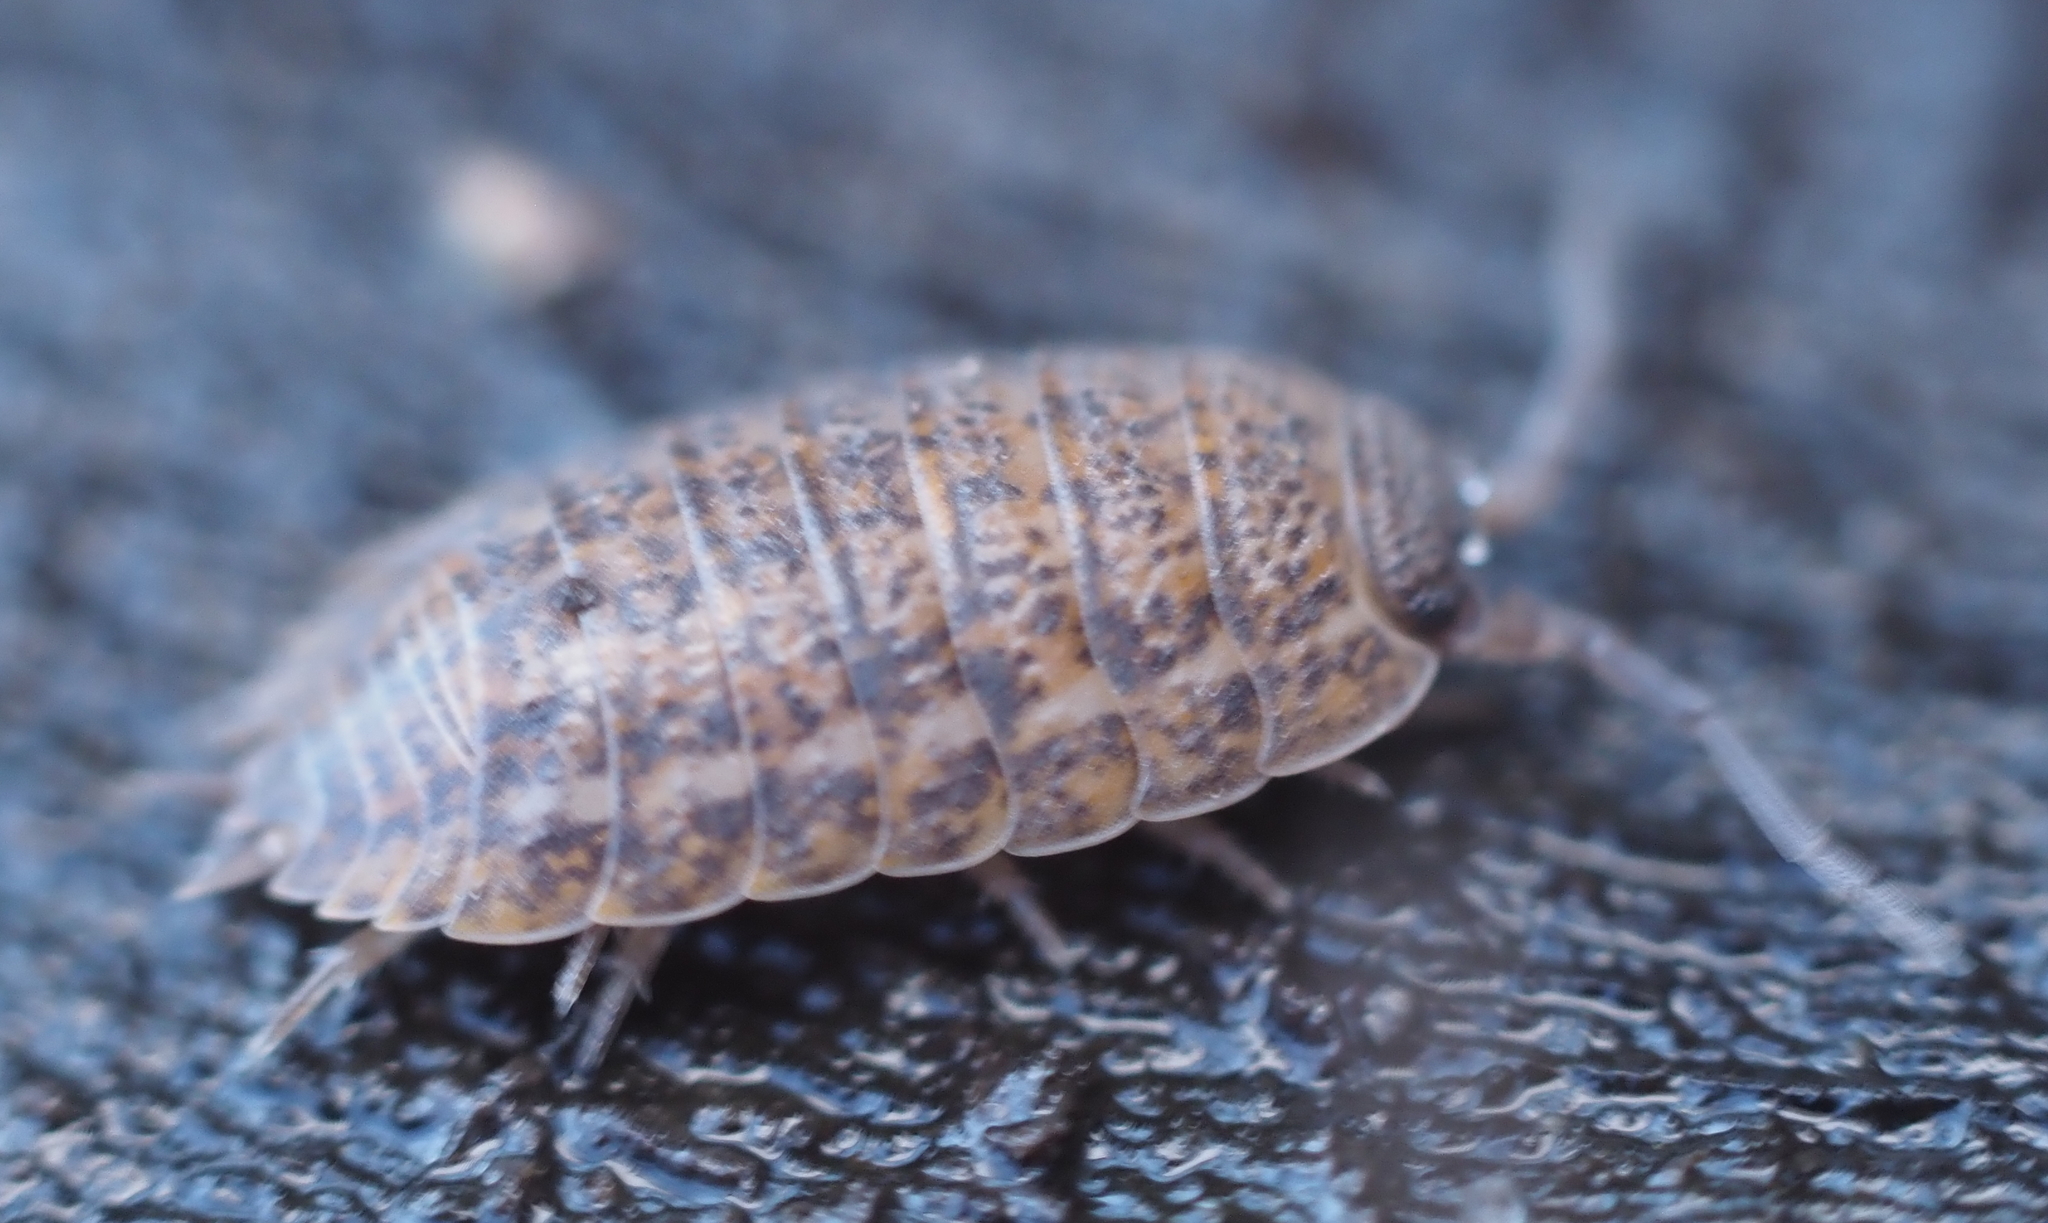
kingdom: Animalia
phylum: Arthropoda
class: Malacostraca
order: Isopoda
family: Trachelipodidae
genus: Trachelipus
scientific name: Trachelipus rathkii
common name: Isopod
